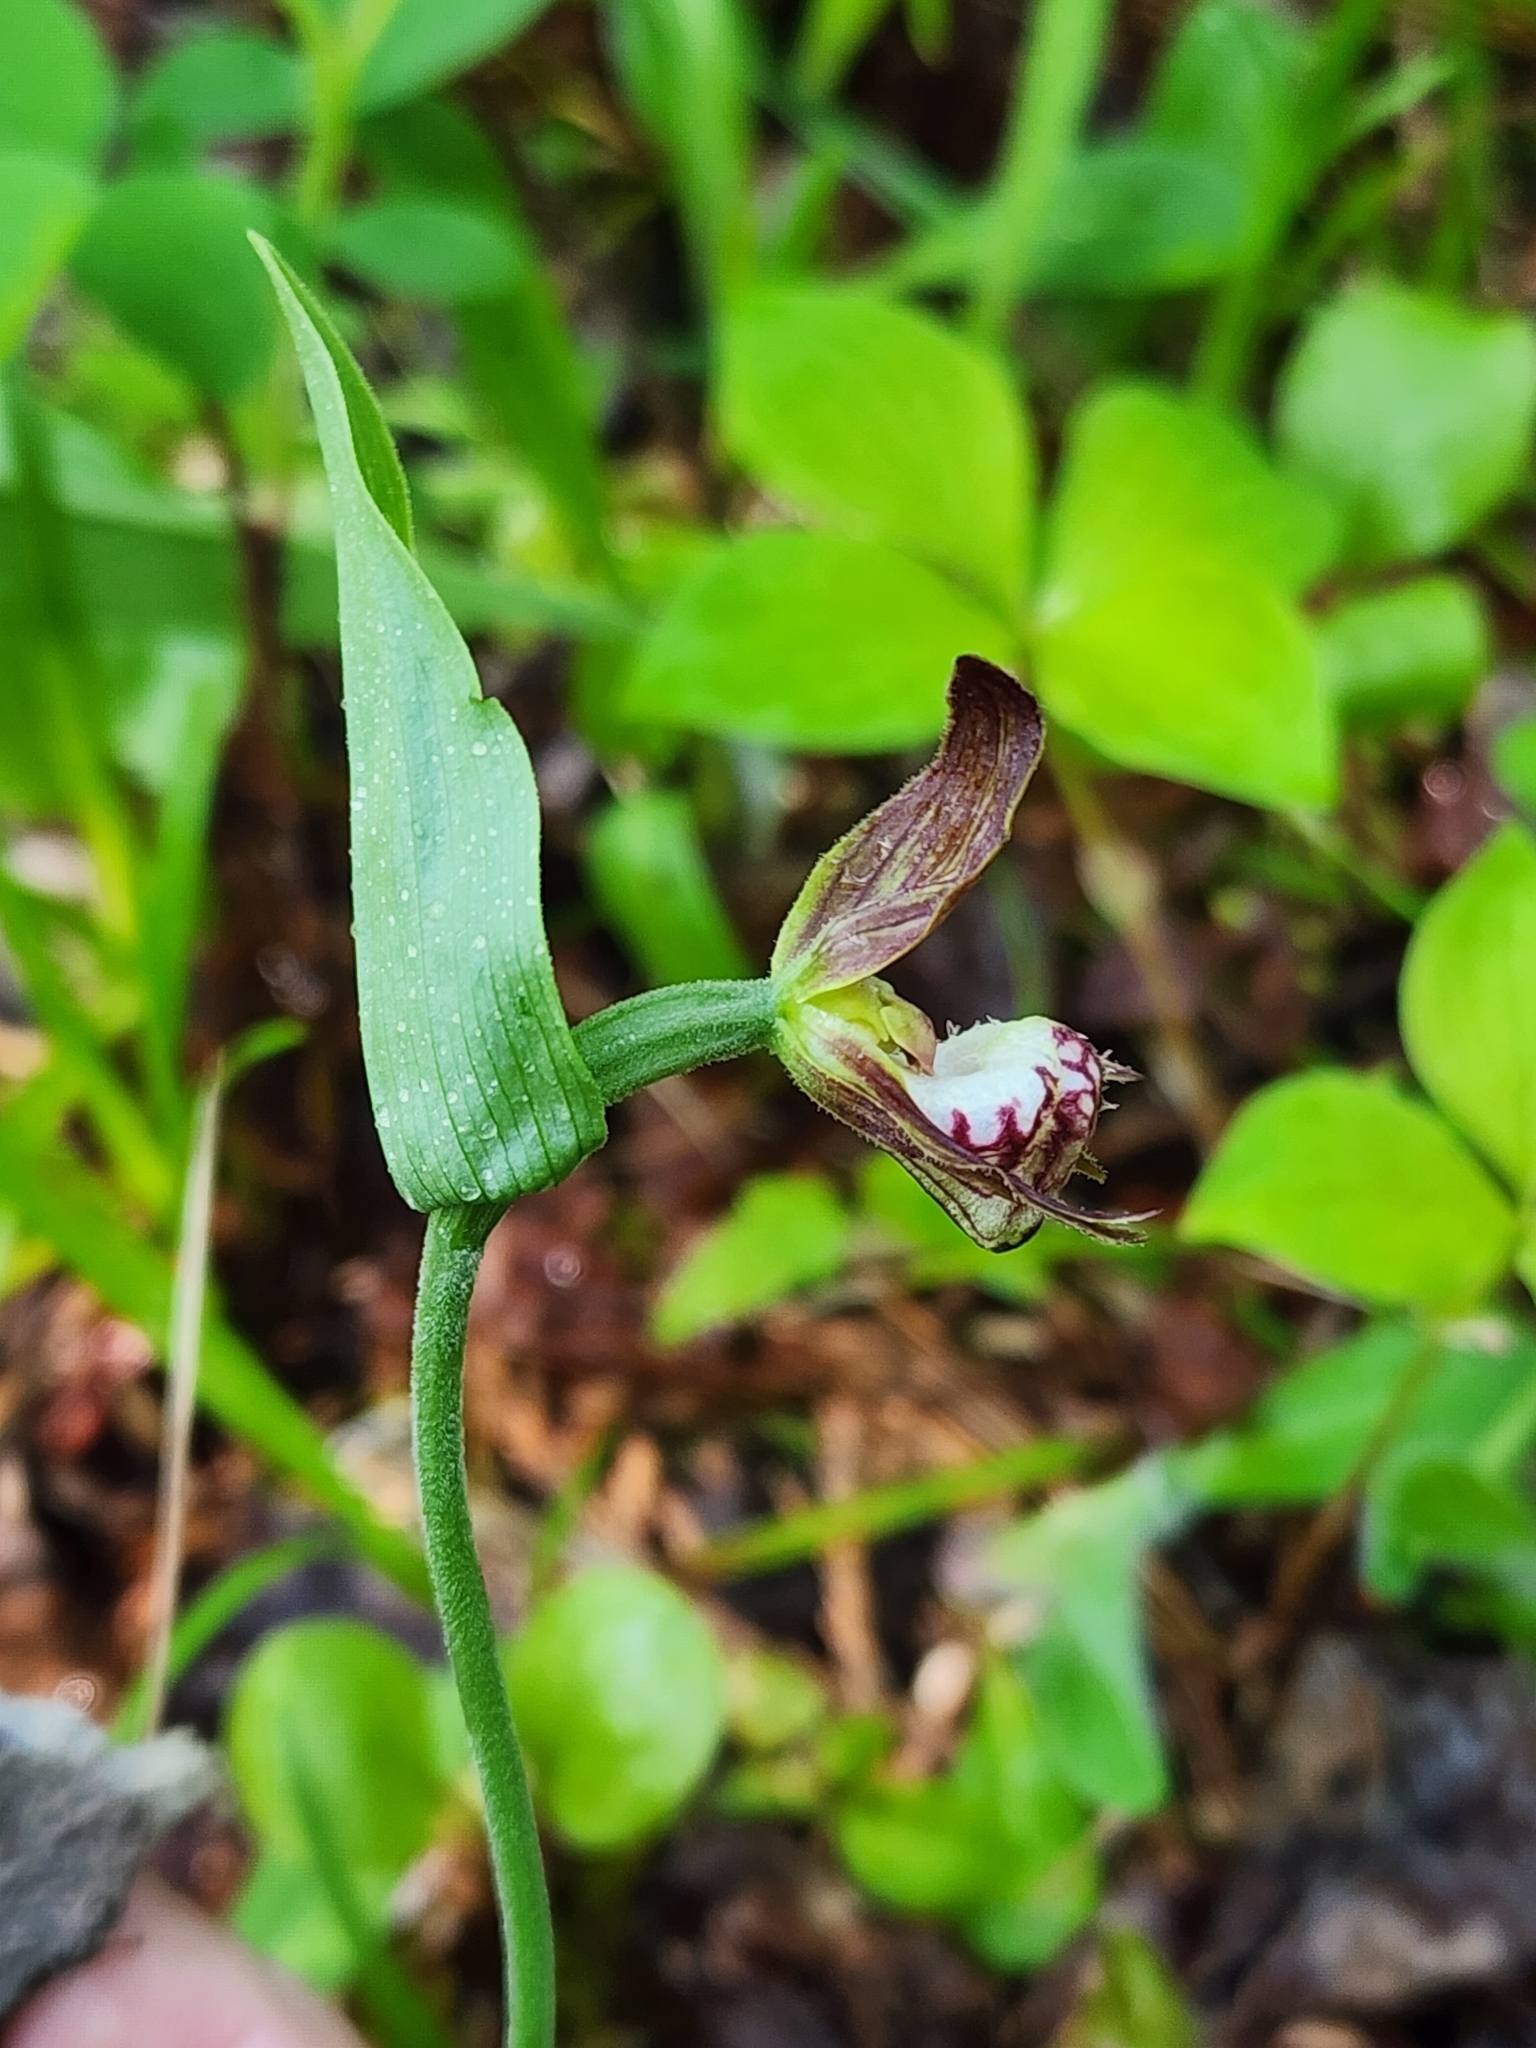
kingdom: Plantae
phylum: Tracheophyta
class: Liliopsida
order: Asparagales
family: Orchidaceae
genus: Cypripedium
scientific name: Cypripedium arietinum
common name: Ram's-head
